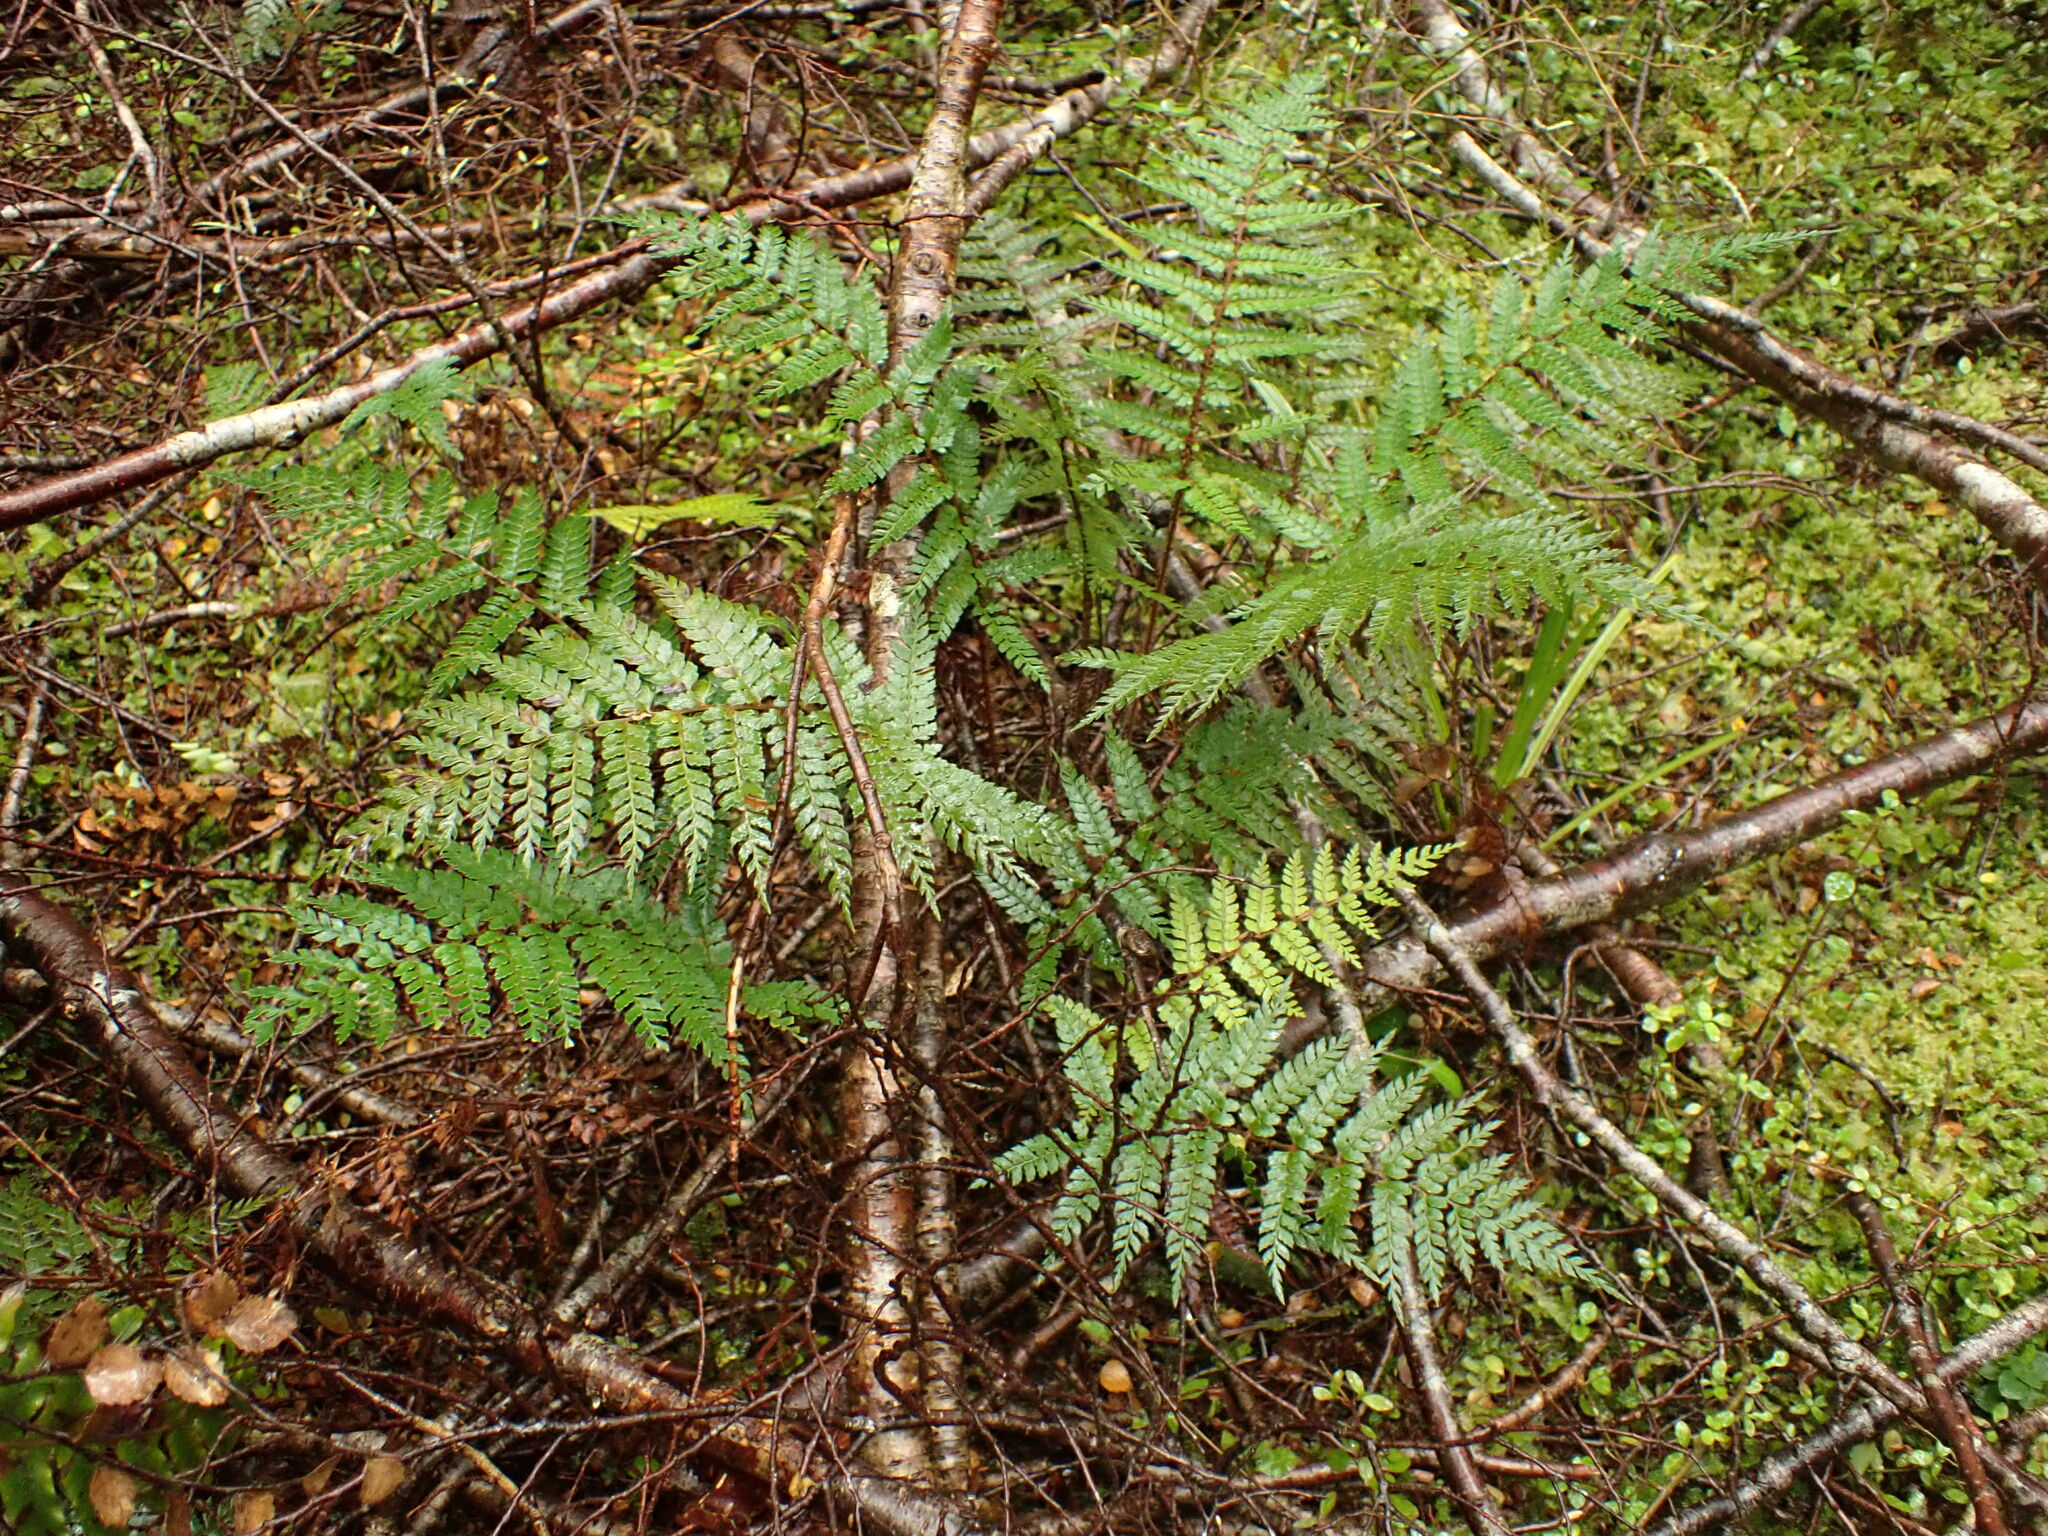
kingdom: Plantae
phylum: Tracheophyta
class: Polypodiopsida
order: Polypodiales
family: Dryopteridaceae
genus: Polystichum
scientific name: Polystichum vestitum
